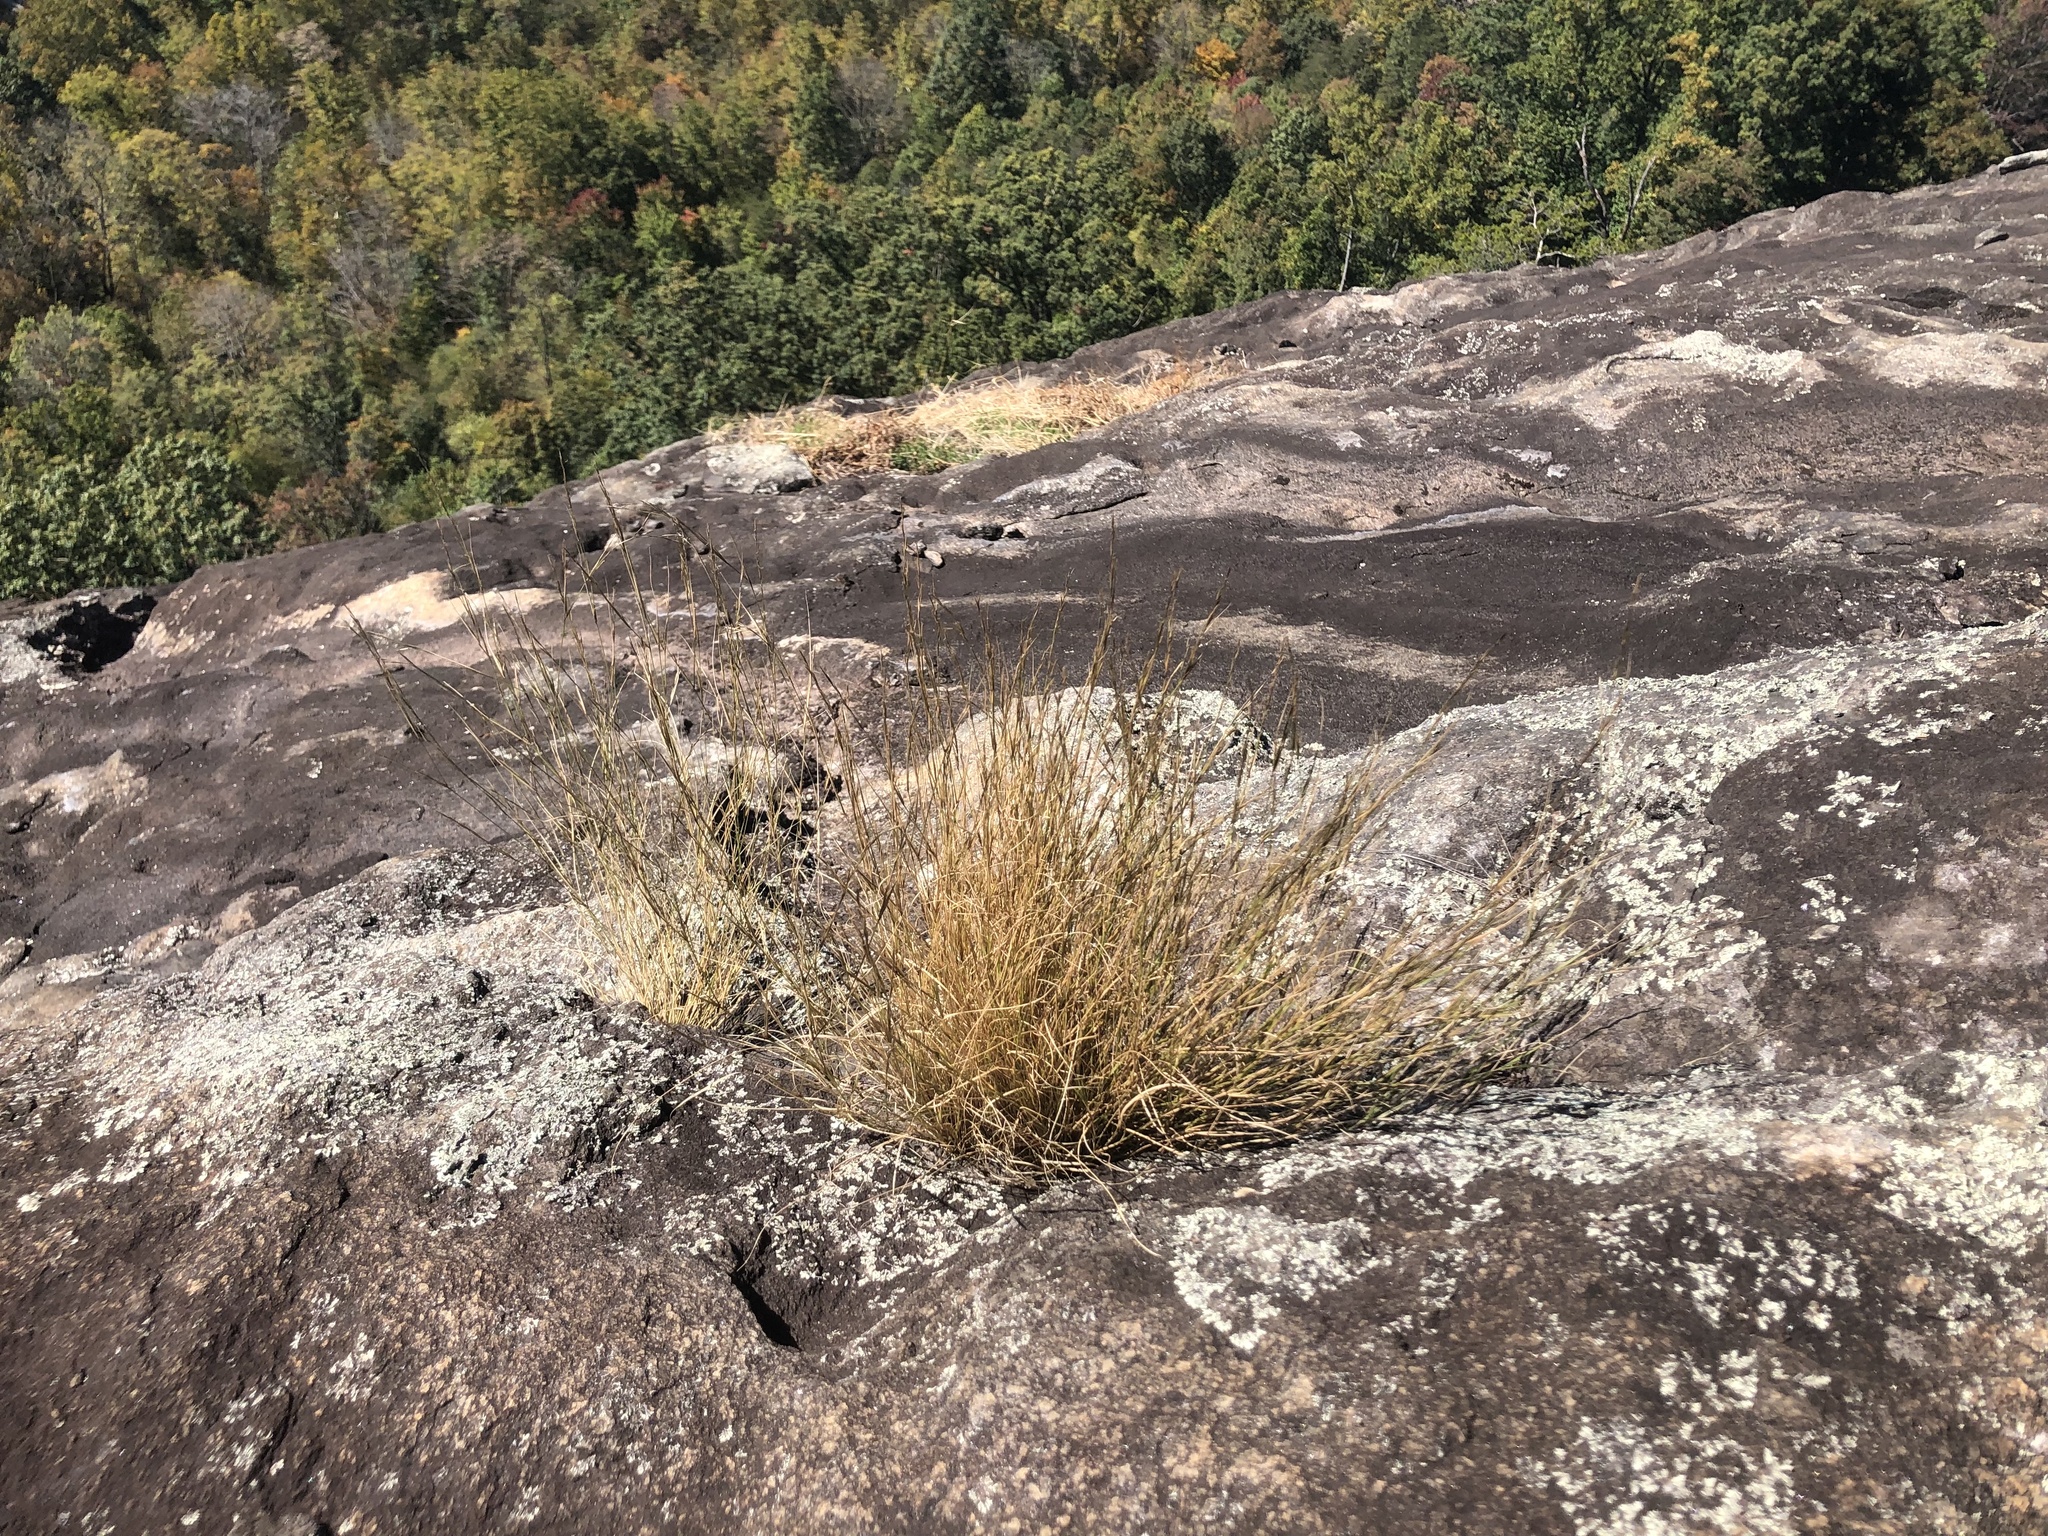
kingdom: Plantae
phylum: Tracheophyta
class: Liliopsida
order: Poales
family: Poaceae
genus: Aristida
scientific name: Aristida dichotoma
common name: Churchmouse three-awn
